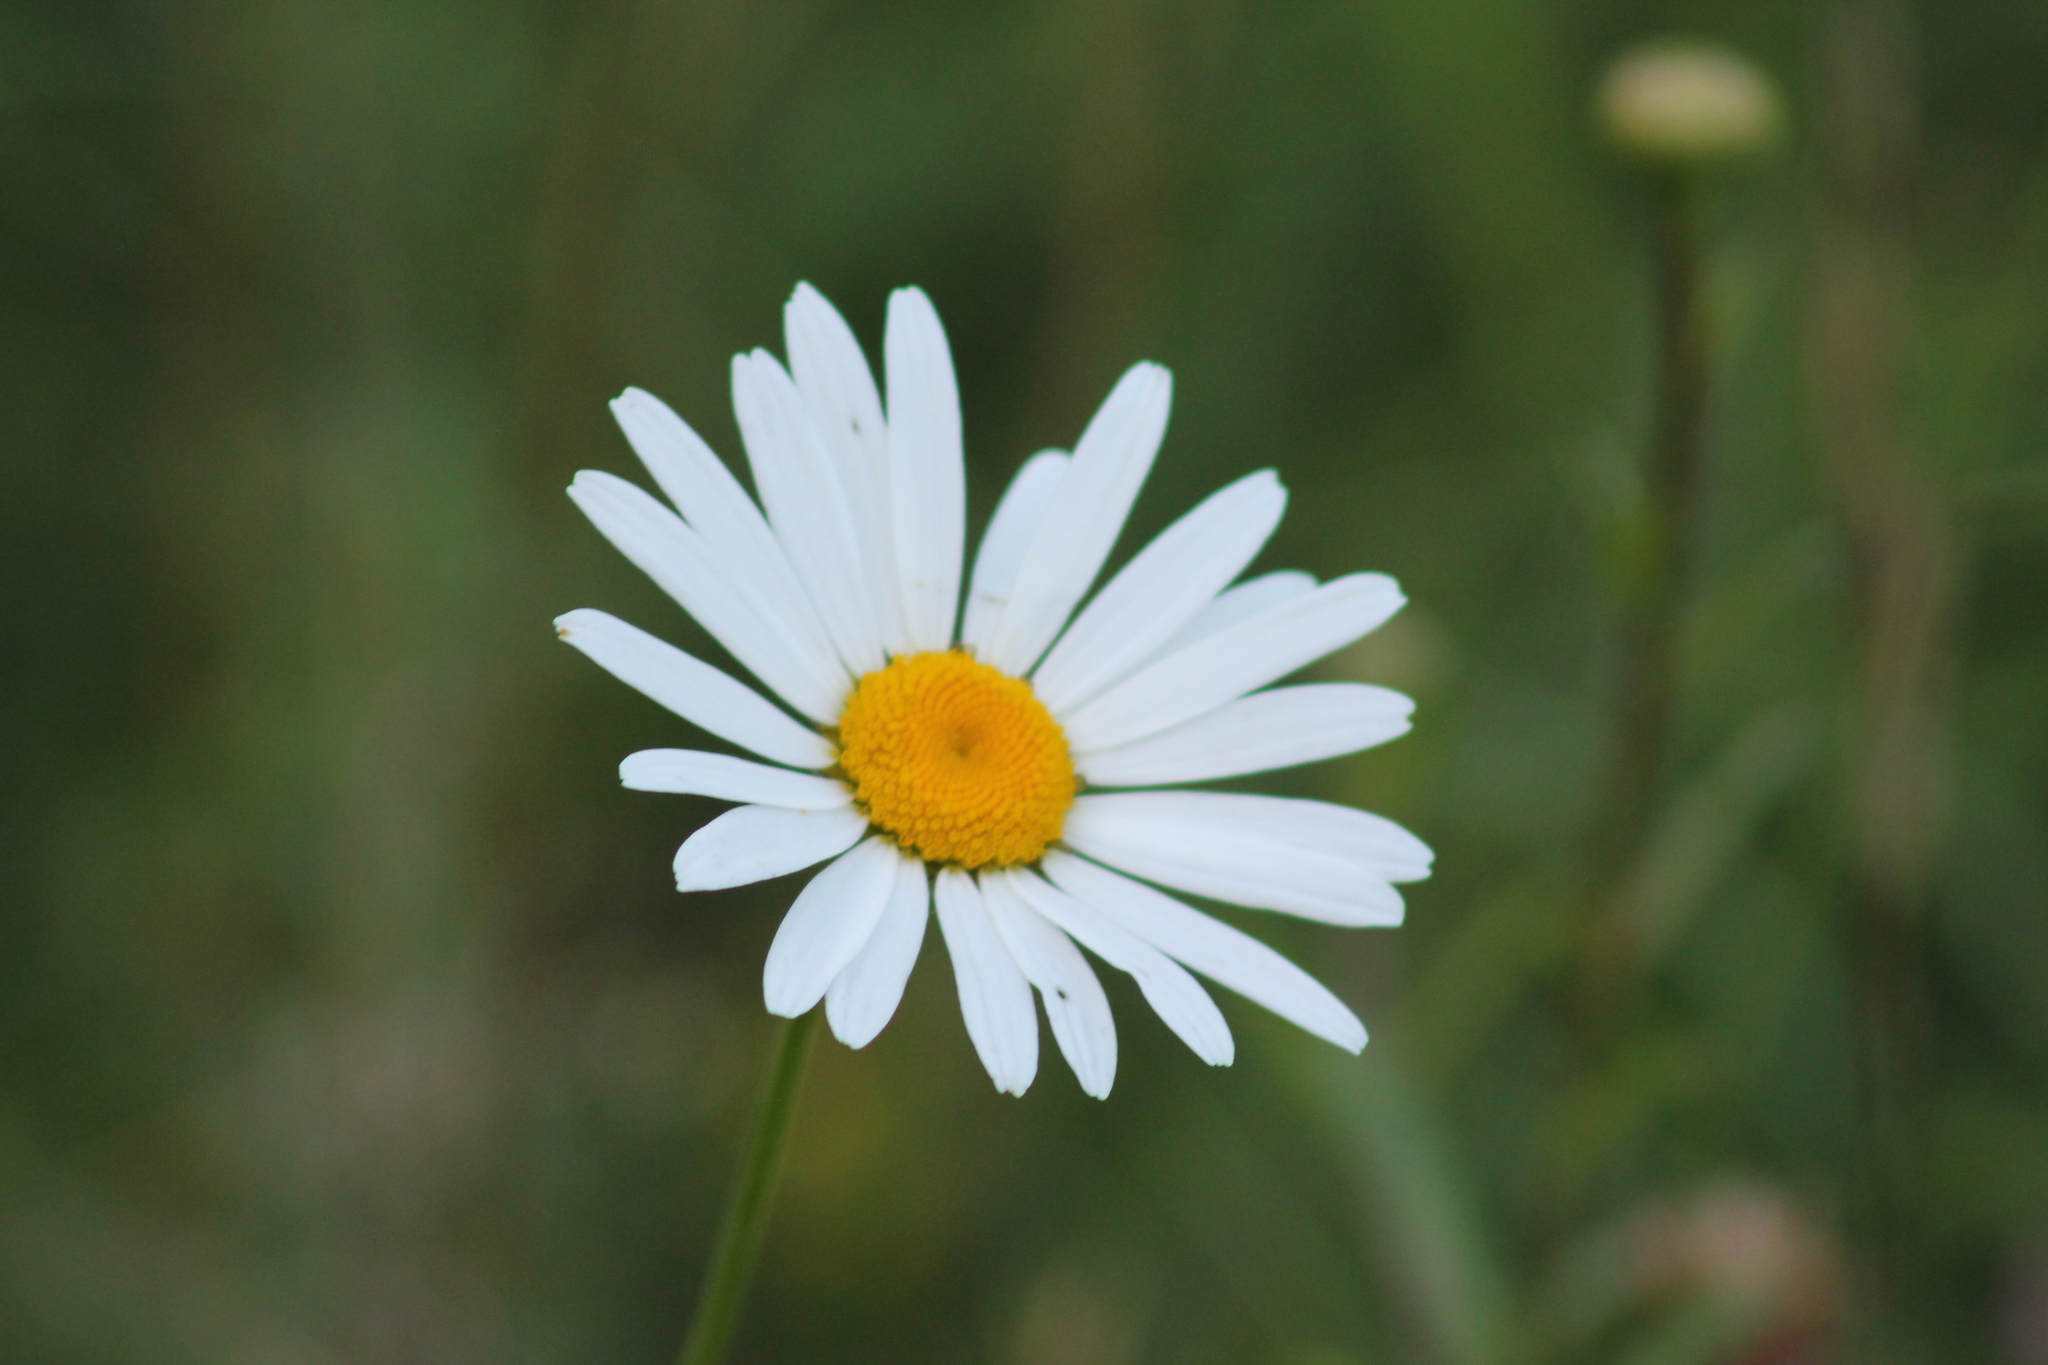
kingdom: Plantae
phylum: Tracheophyta
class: Magnoliopsida
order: Asterales
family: Asteraceae
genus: Leucanthemum
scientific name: Leucanthemum vulgare
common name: Oxeye daisy
